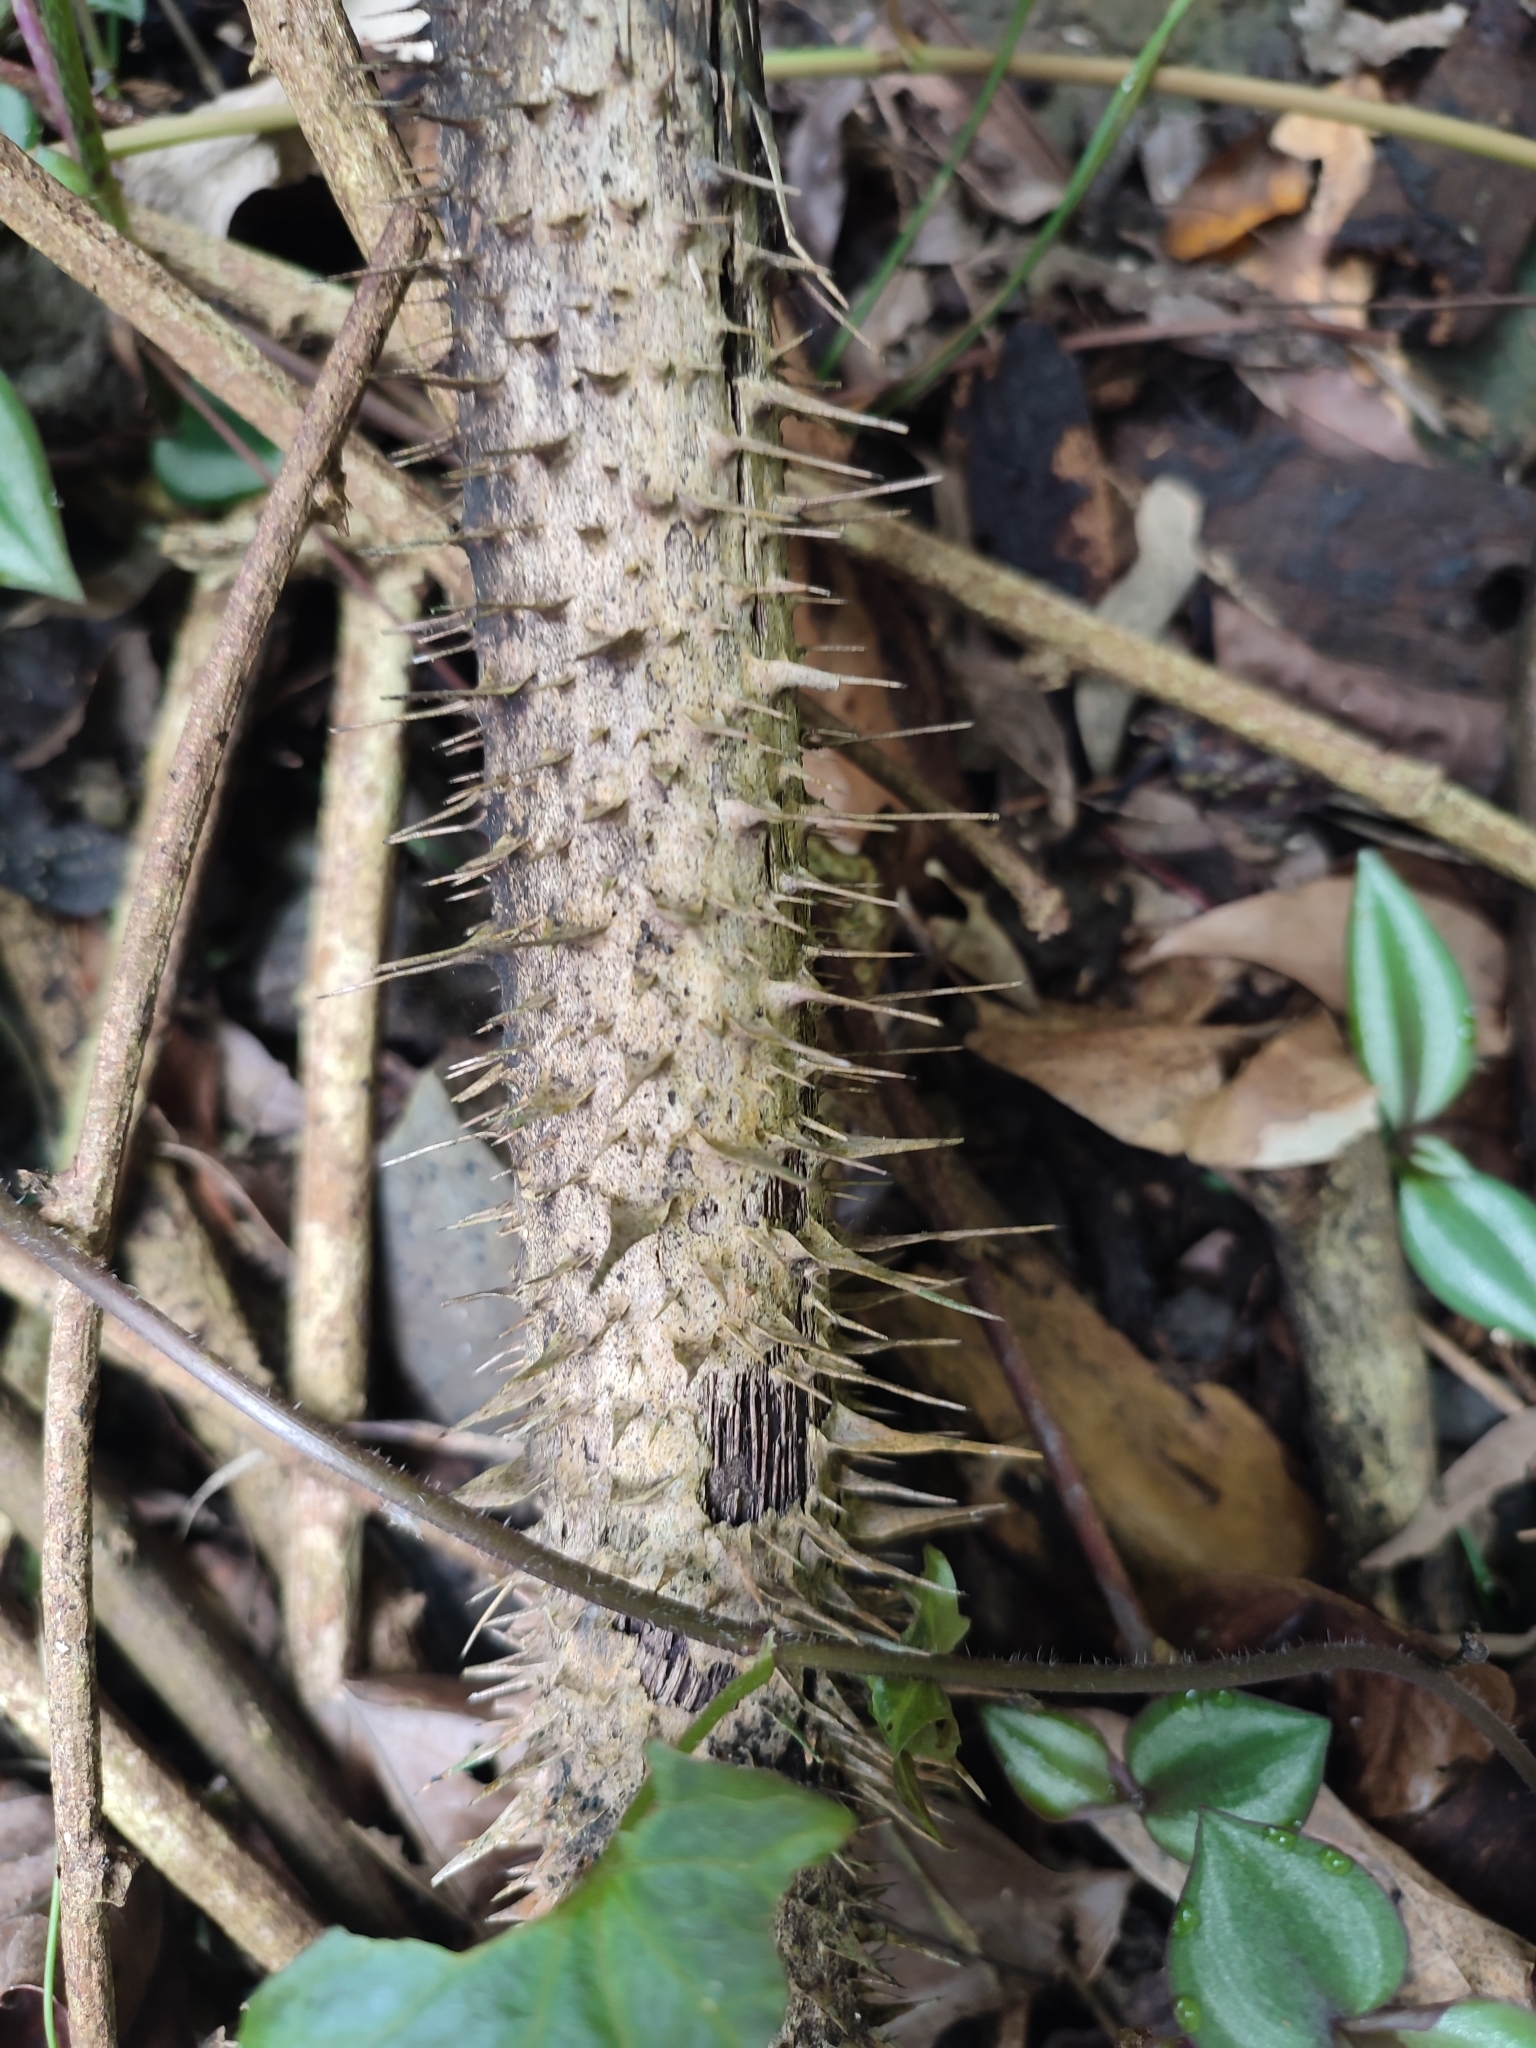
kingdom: Plantae
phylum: Tracheophyta
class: Liliopsida
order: Arecales
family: Arecaceae
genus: Calamus
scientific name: Calamus formosanus
